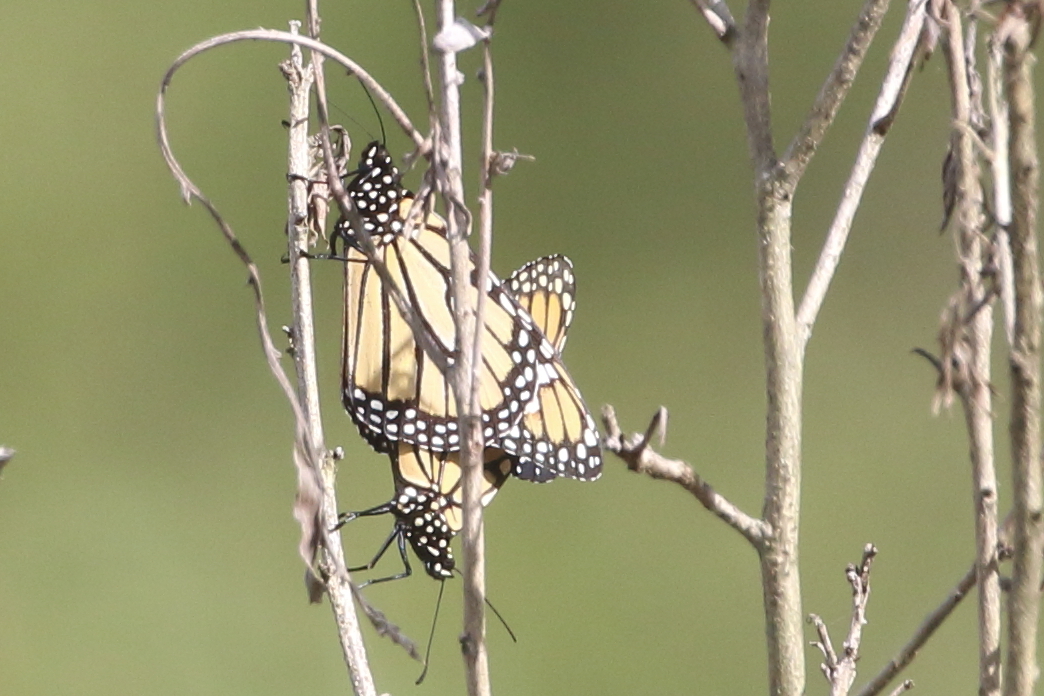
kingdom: Animalia
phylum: Arthropoda
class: Insecta
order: Lepidoptera
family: Nymphalidae
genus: Danaus
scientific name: Danaus plexippus
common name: Monarch
